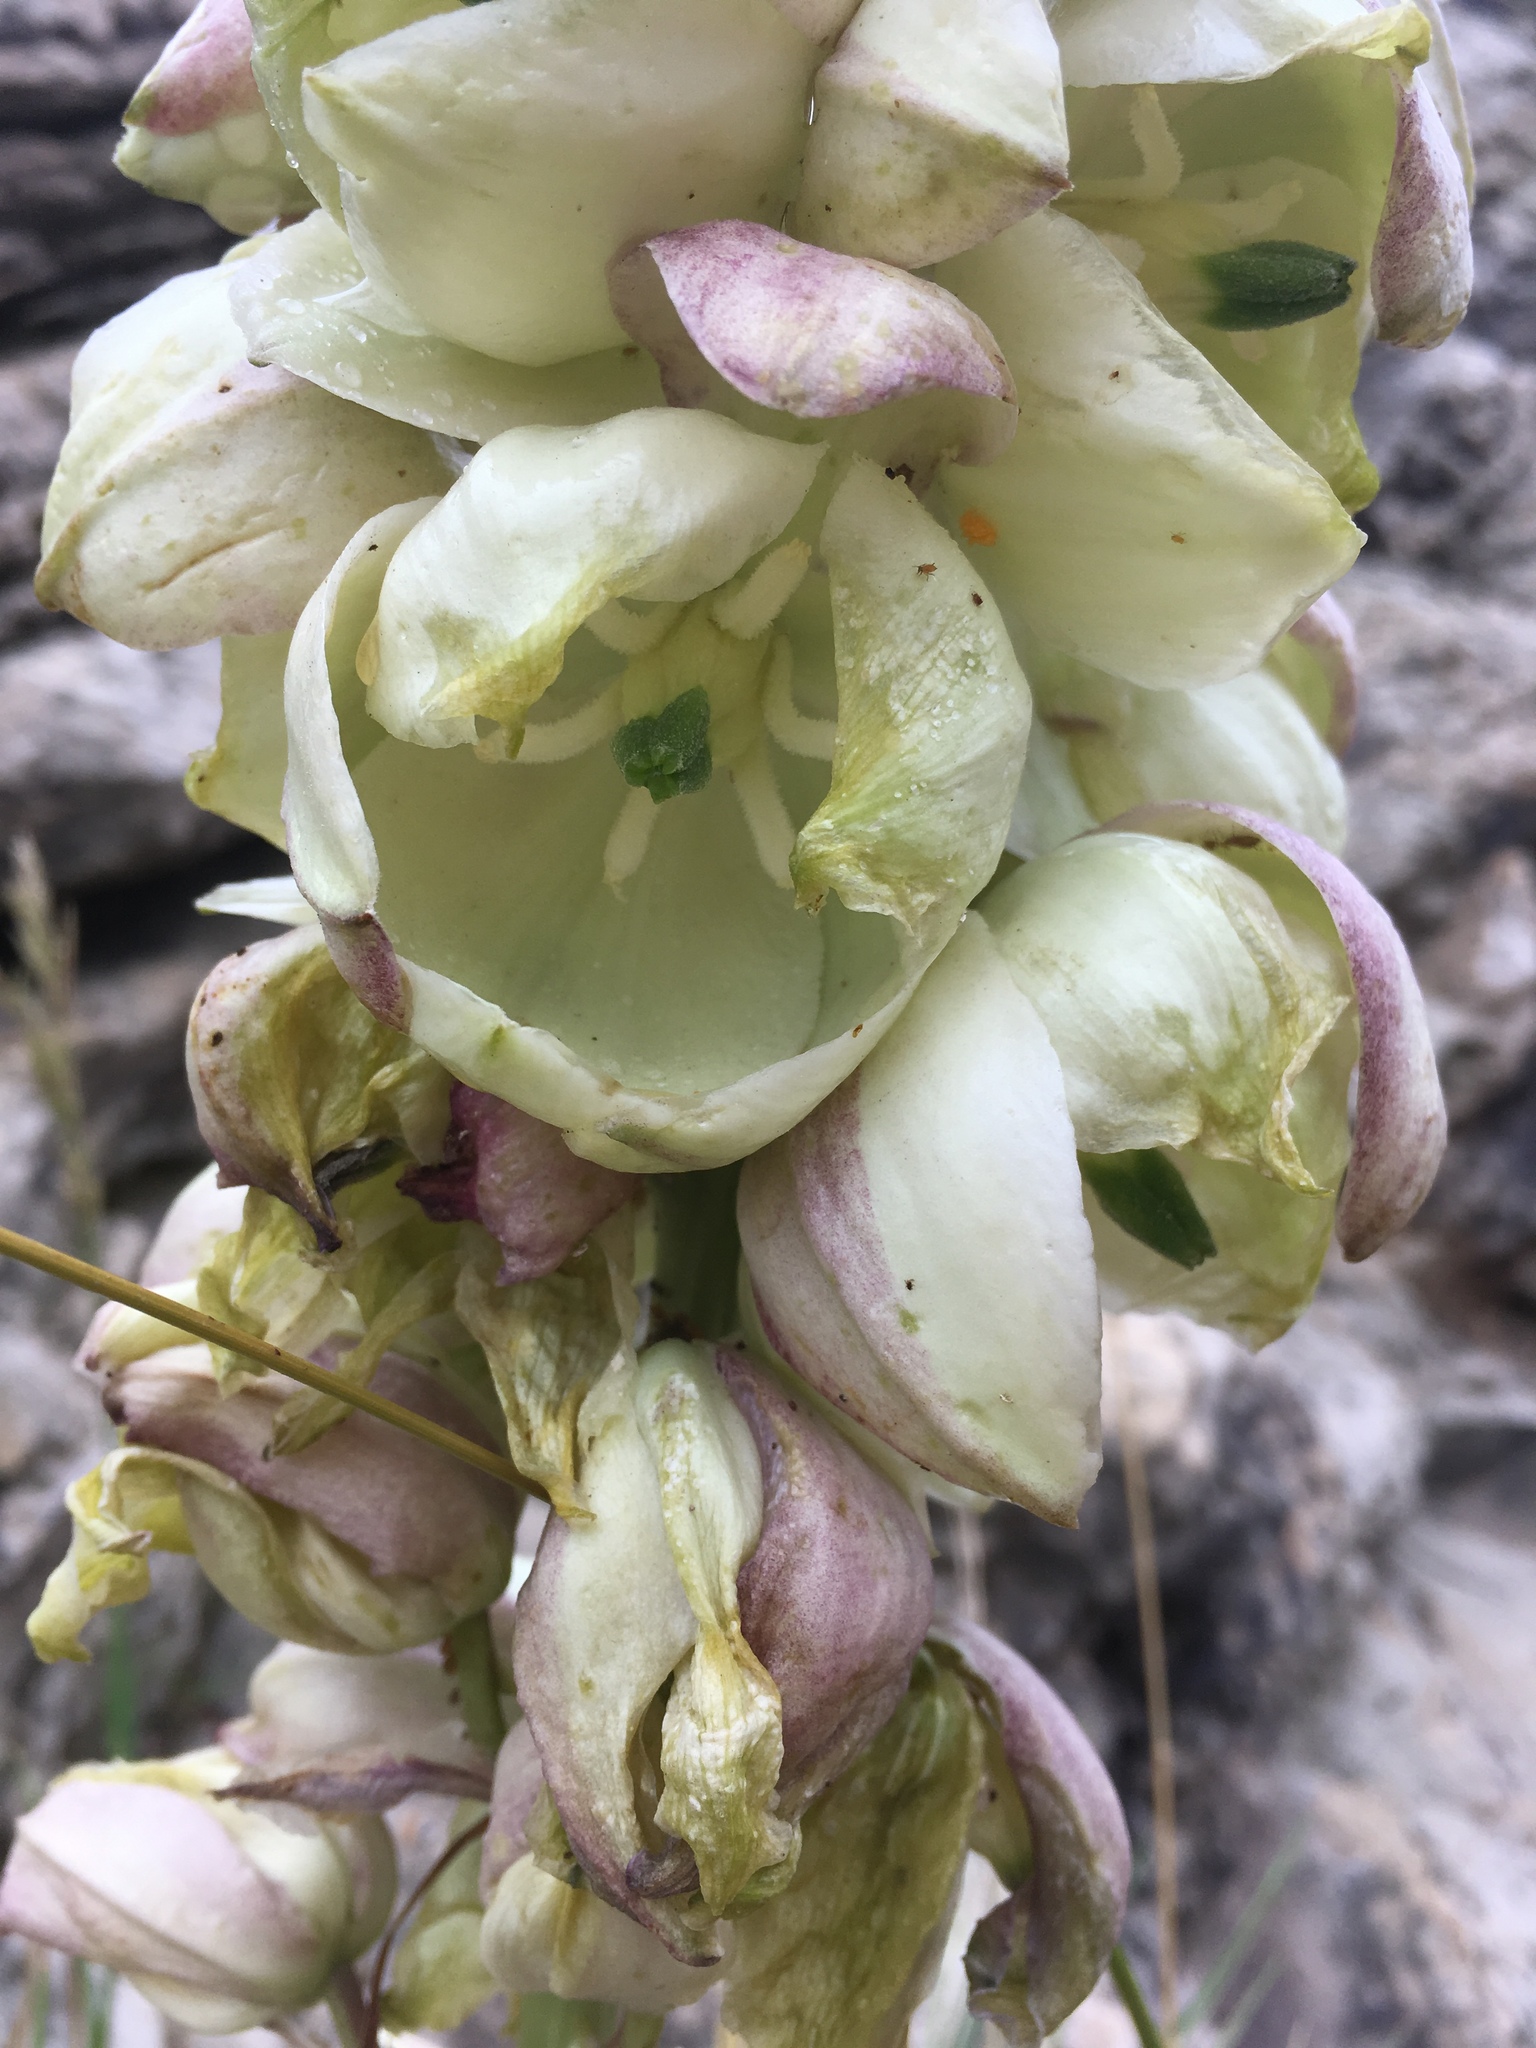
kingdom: Plantae
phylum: Tracheophyta
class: Liliopsida
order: Asparagales
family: Asparagaceae
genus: Yucca
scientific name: Yucca glauca
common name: Great plains yucca
